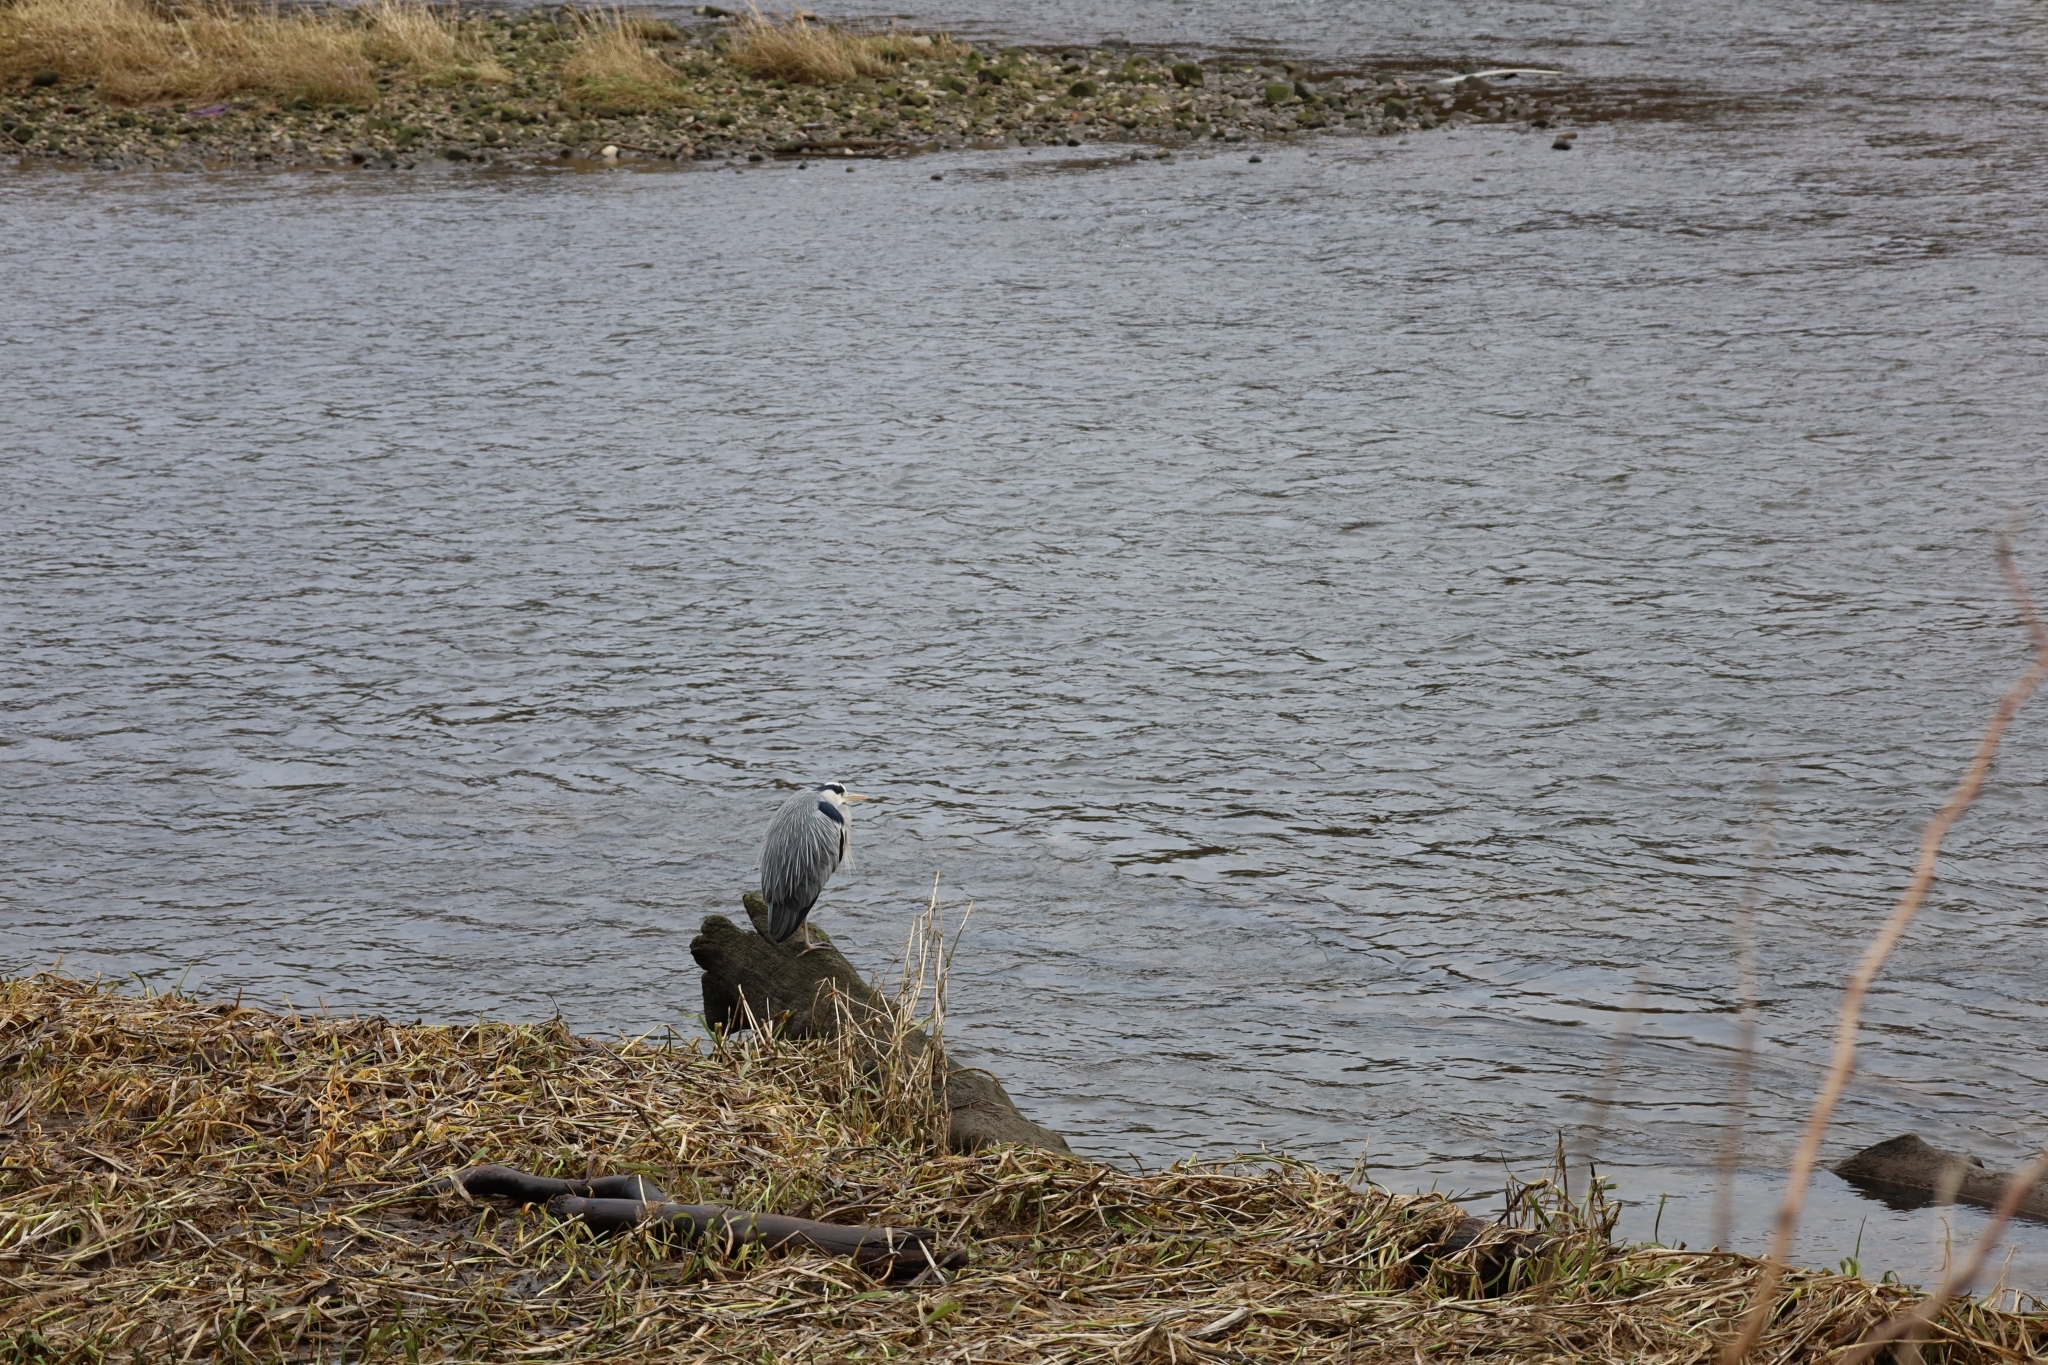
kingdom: Animalia
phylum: Chordata
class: Aves
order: Pelecaniformes
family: Ardeidae
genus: Ardea
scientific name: Ardea cinerea
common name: Grey heron
